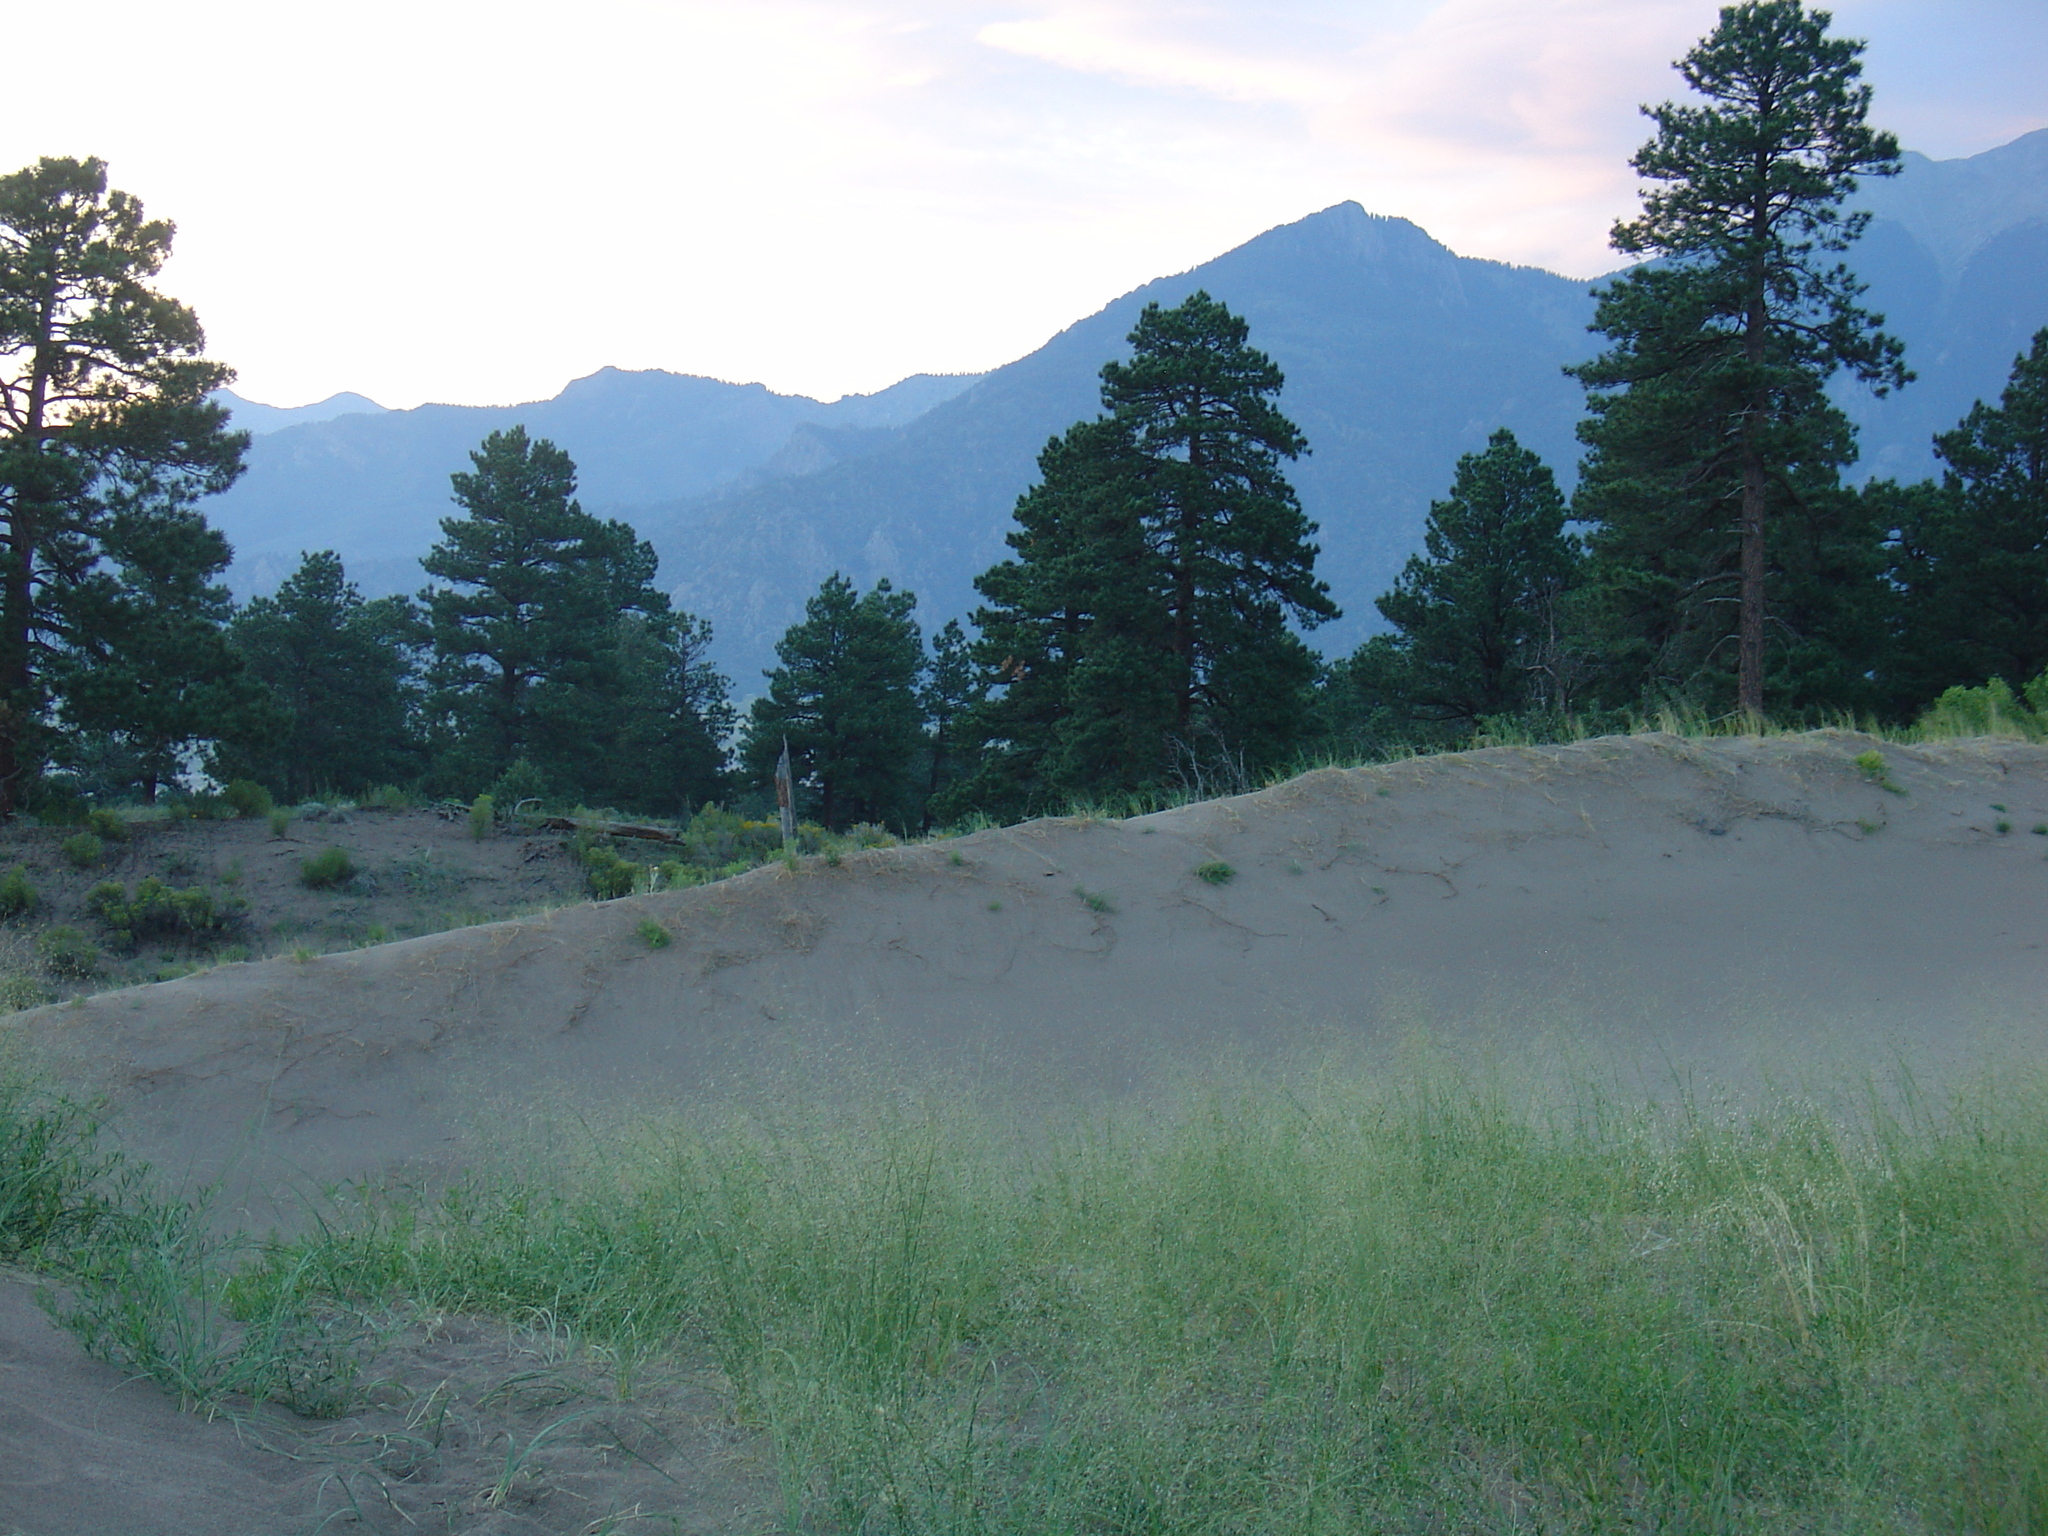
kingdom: Plantae
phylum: Tracheophyta
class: Pinopsida
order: Pinales
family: Pinaceae
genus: Pinus
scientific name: Pinus ponderosa
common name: Western yellow-pine
